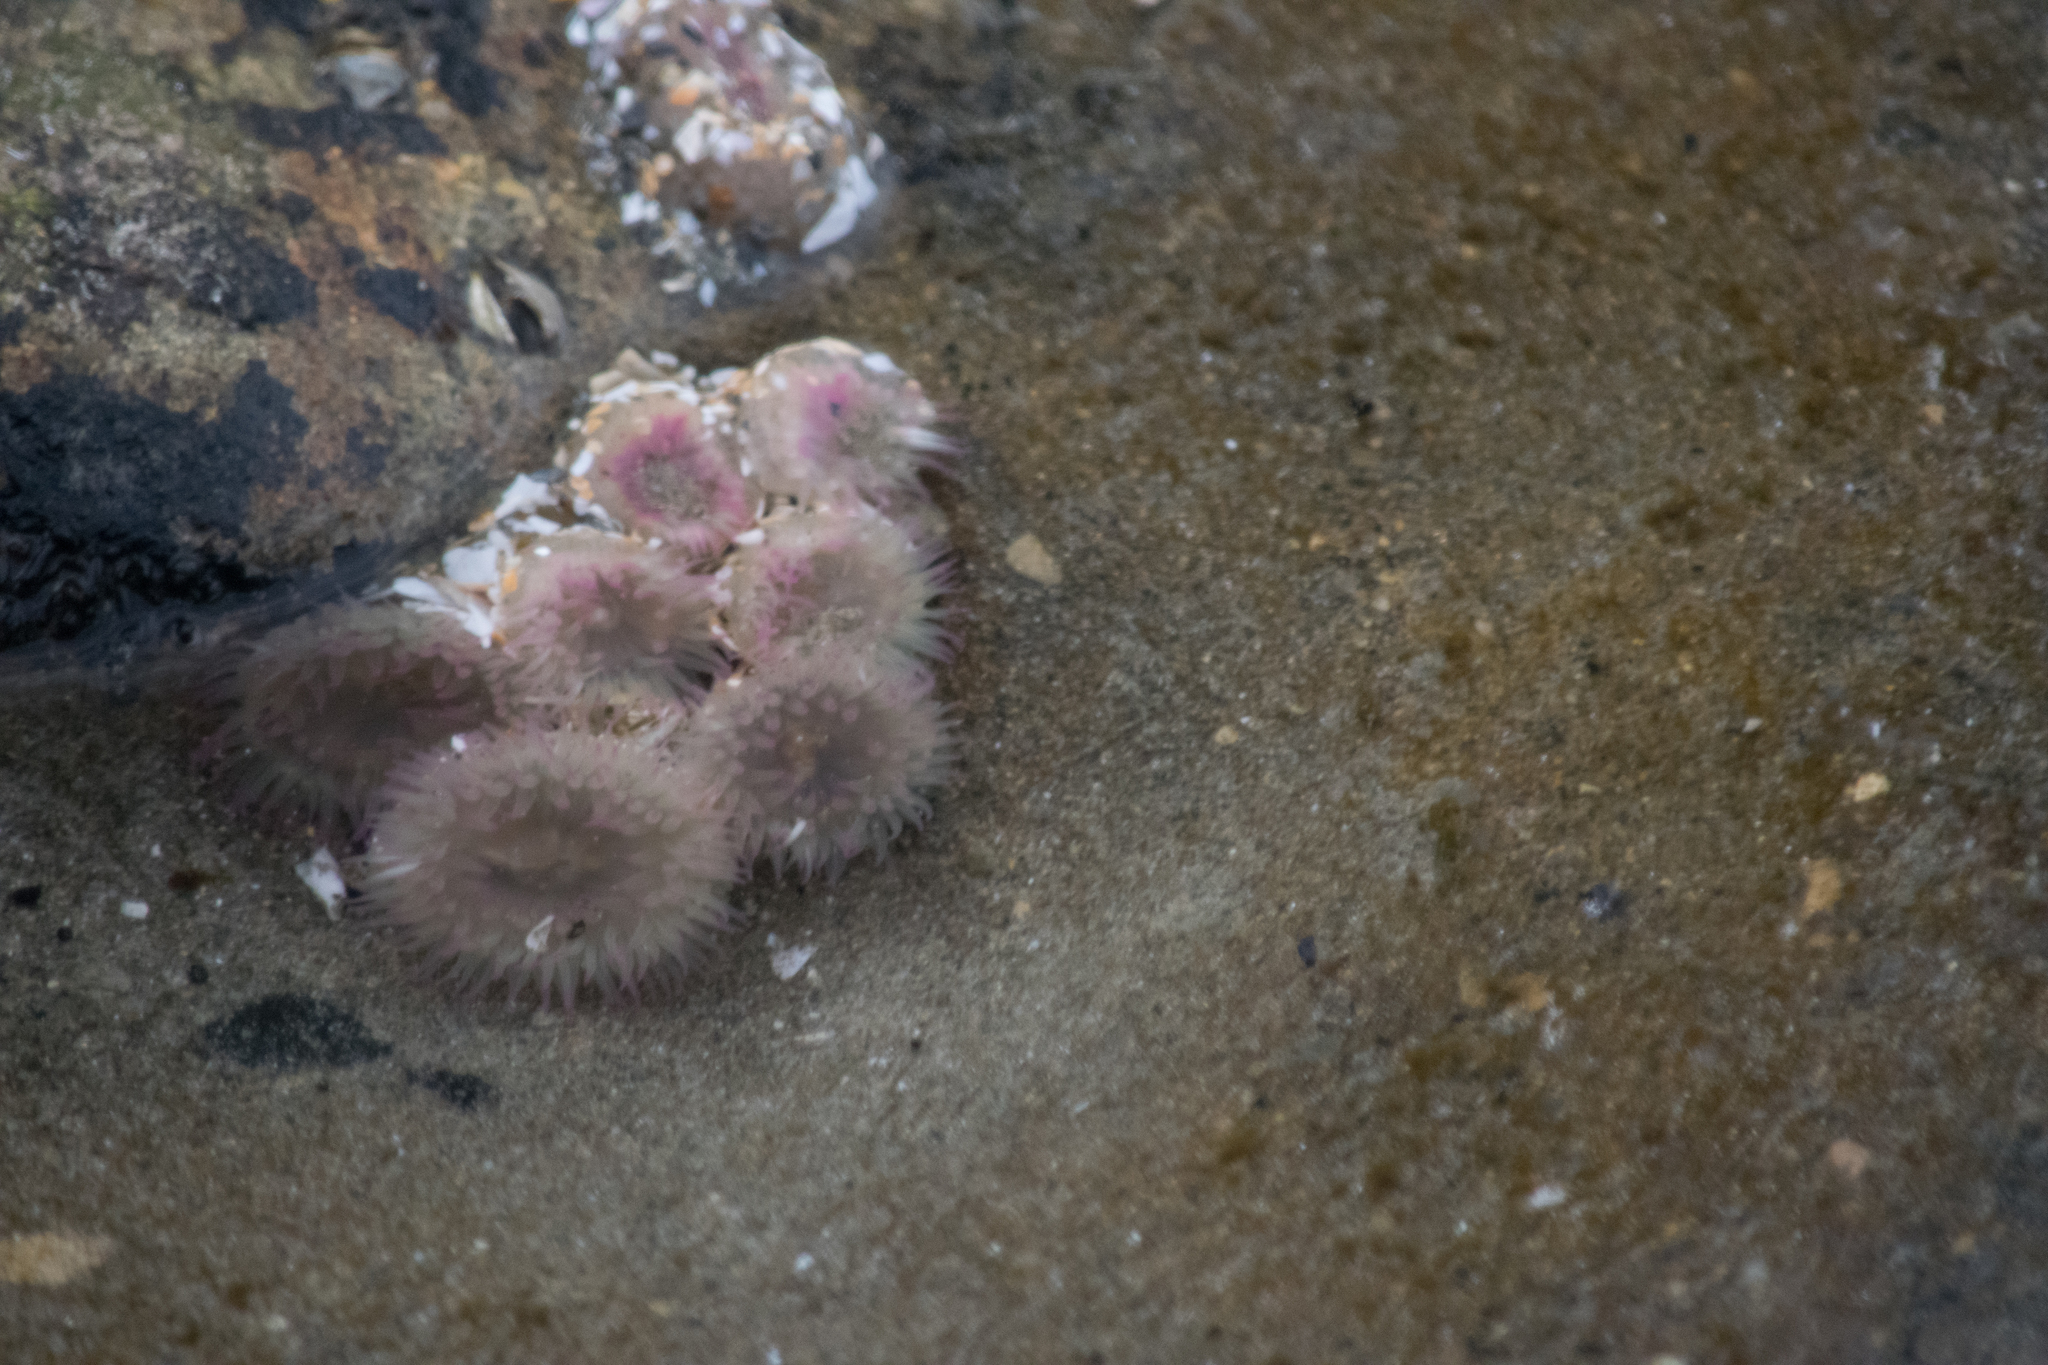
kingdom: Animalia
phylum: Cnidaria
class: Anthozoa
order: Actiniaria
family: Actiniidae
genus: Anthopleura
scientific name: Anthopleura elegantissima
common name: Clonal anemone
